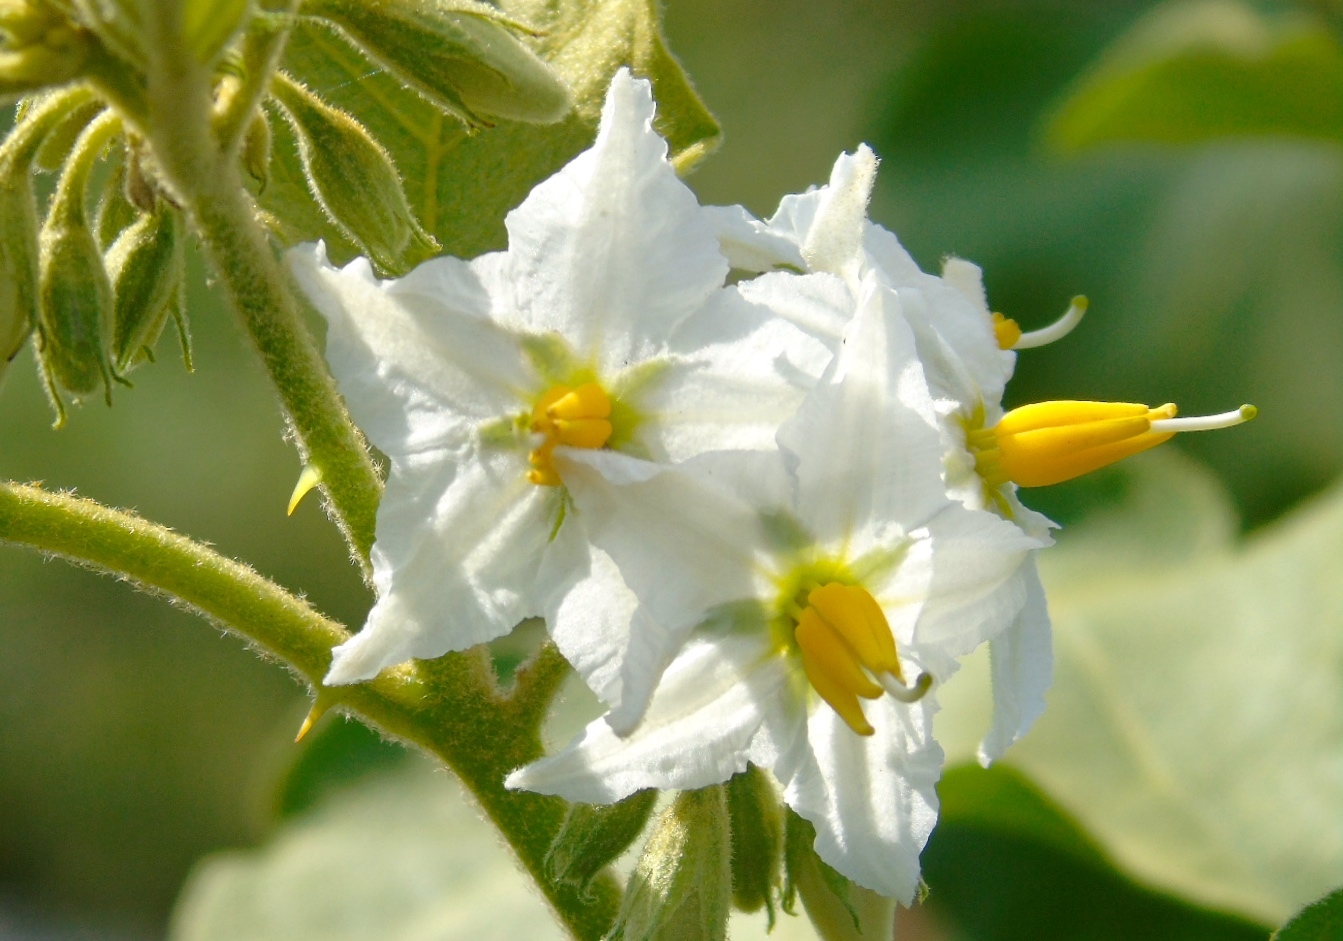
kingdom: Plantae
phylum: Tracheophyta
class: Magnoliopsida
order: Solanales
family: Solanaceae
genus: Solanum
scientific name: Solanum ferrugineum
